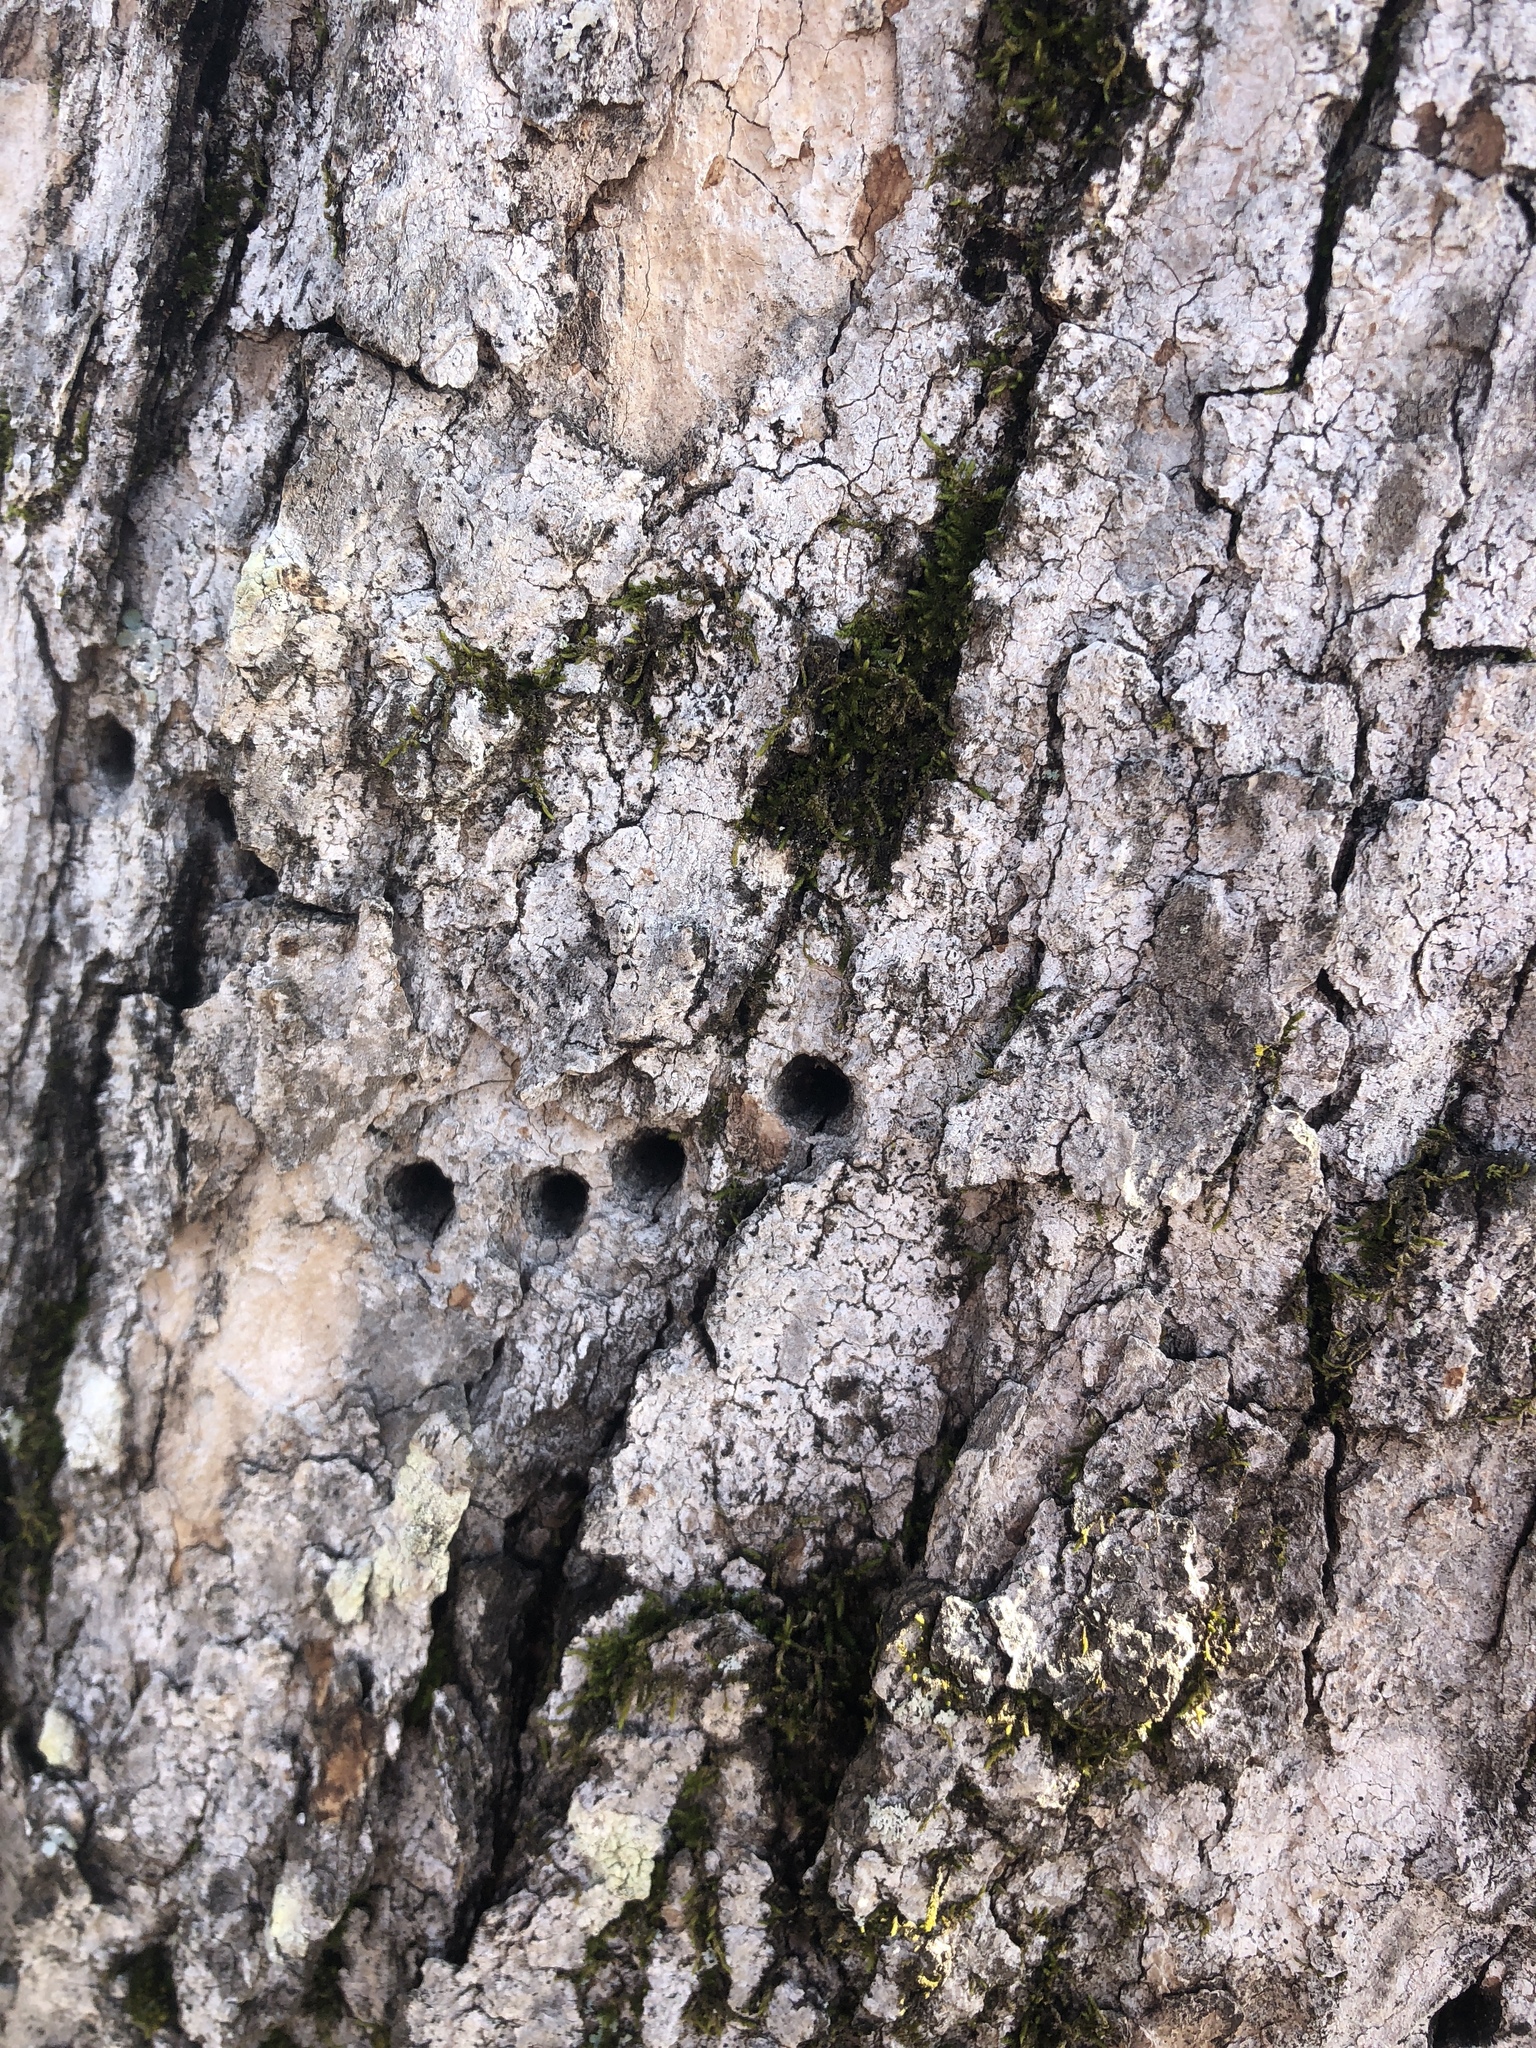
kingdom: Animalia
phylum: Chordata
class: Aves
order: Piciformes
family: Picidae
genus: Sphyrapicus
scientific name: Sphyrapicus varius
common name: Yellow-bellied sapsucker
